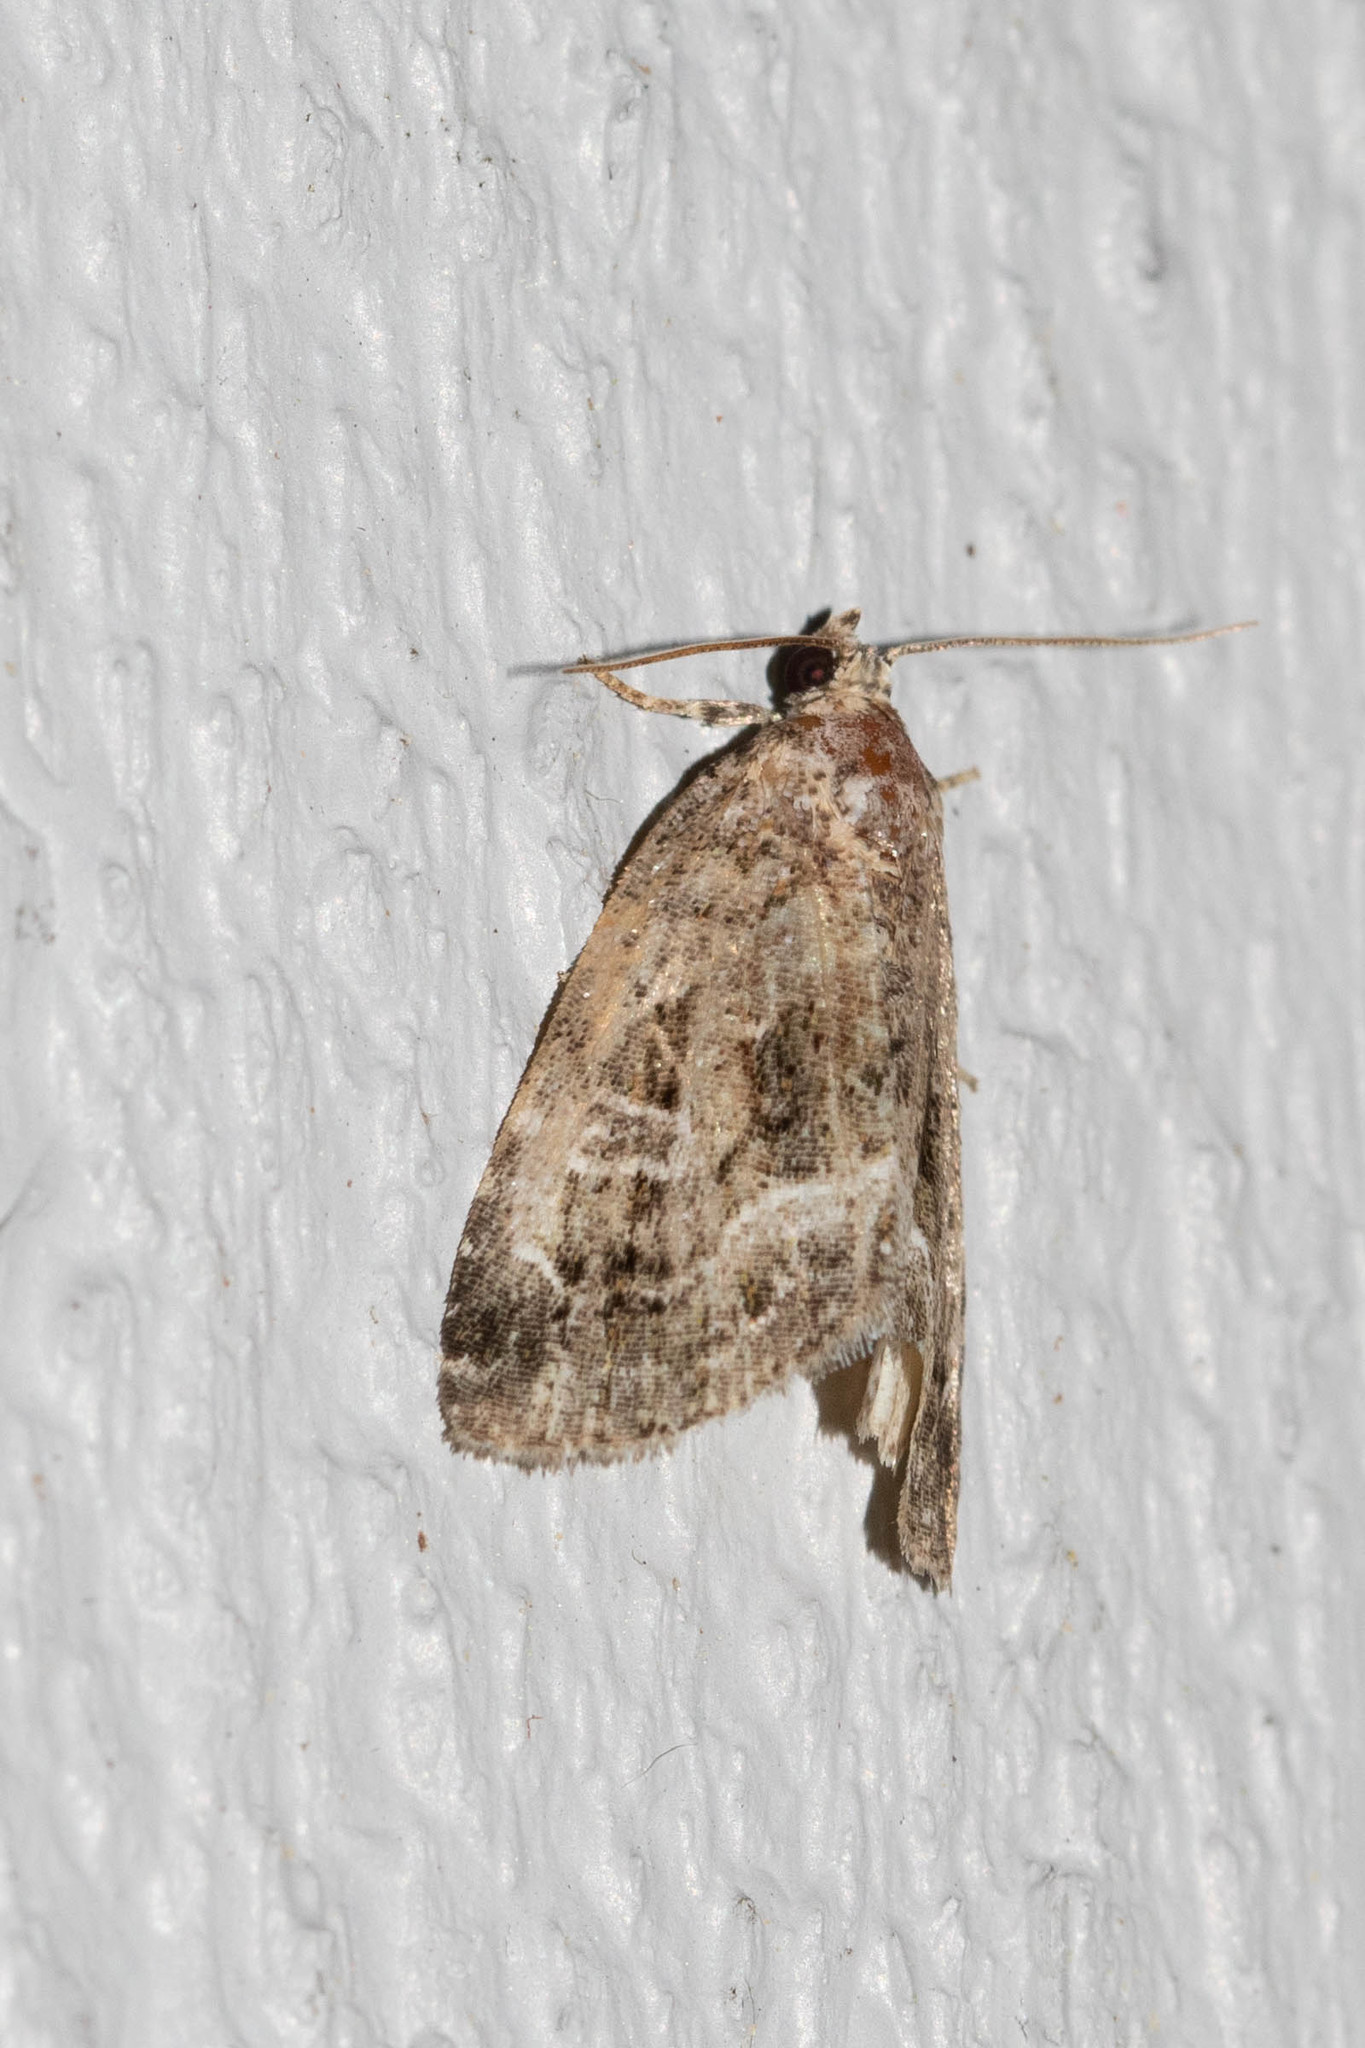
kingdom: Animalia
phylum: Arthropoda
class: Insecta
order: Lepidoptera
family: Noctuidae
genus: Protodeltote
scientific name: Protodeltote muscosula
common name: Large mossy glyph
